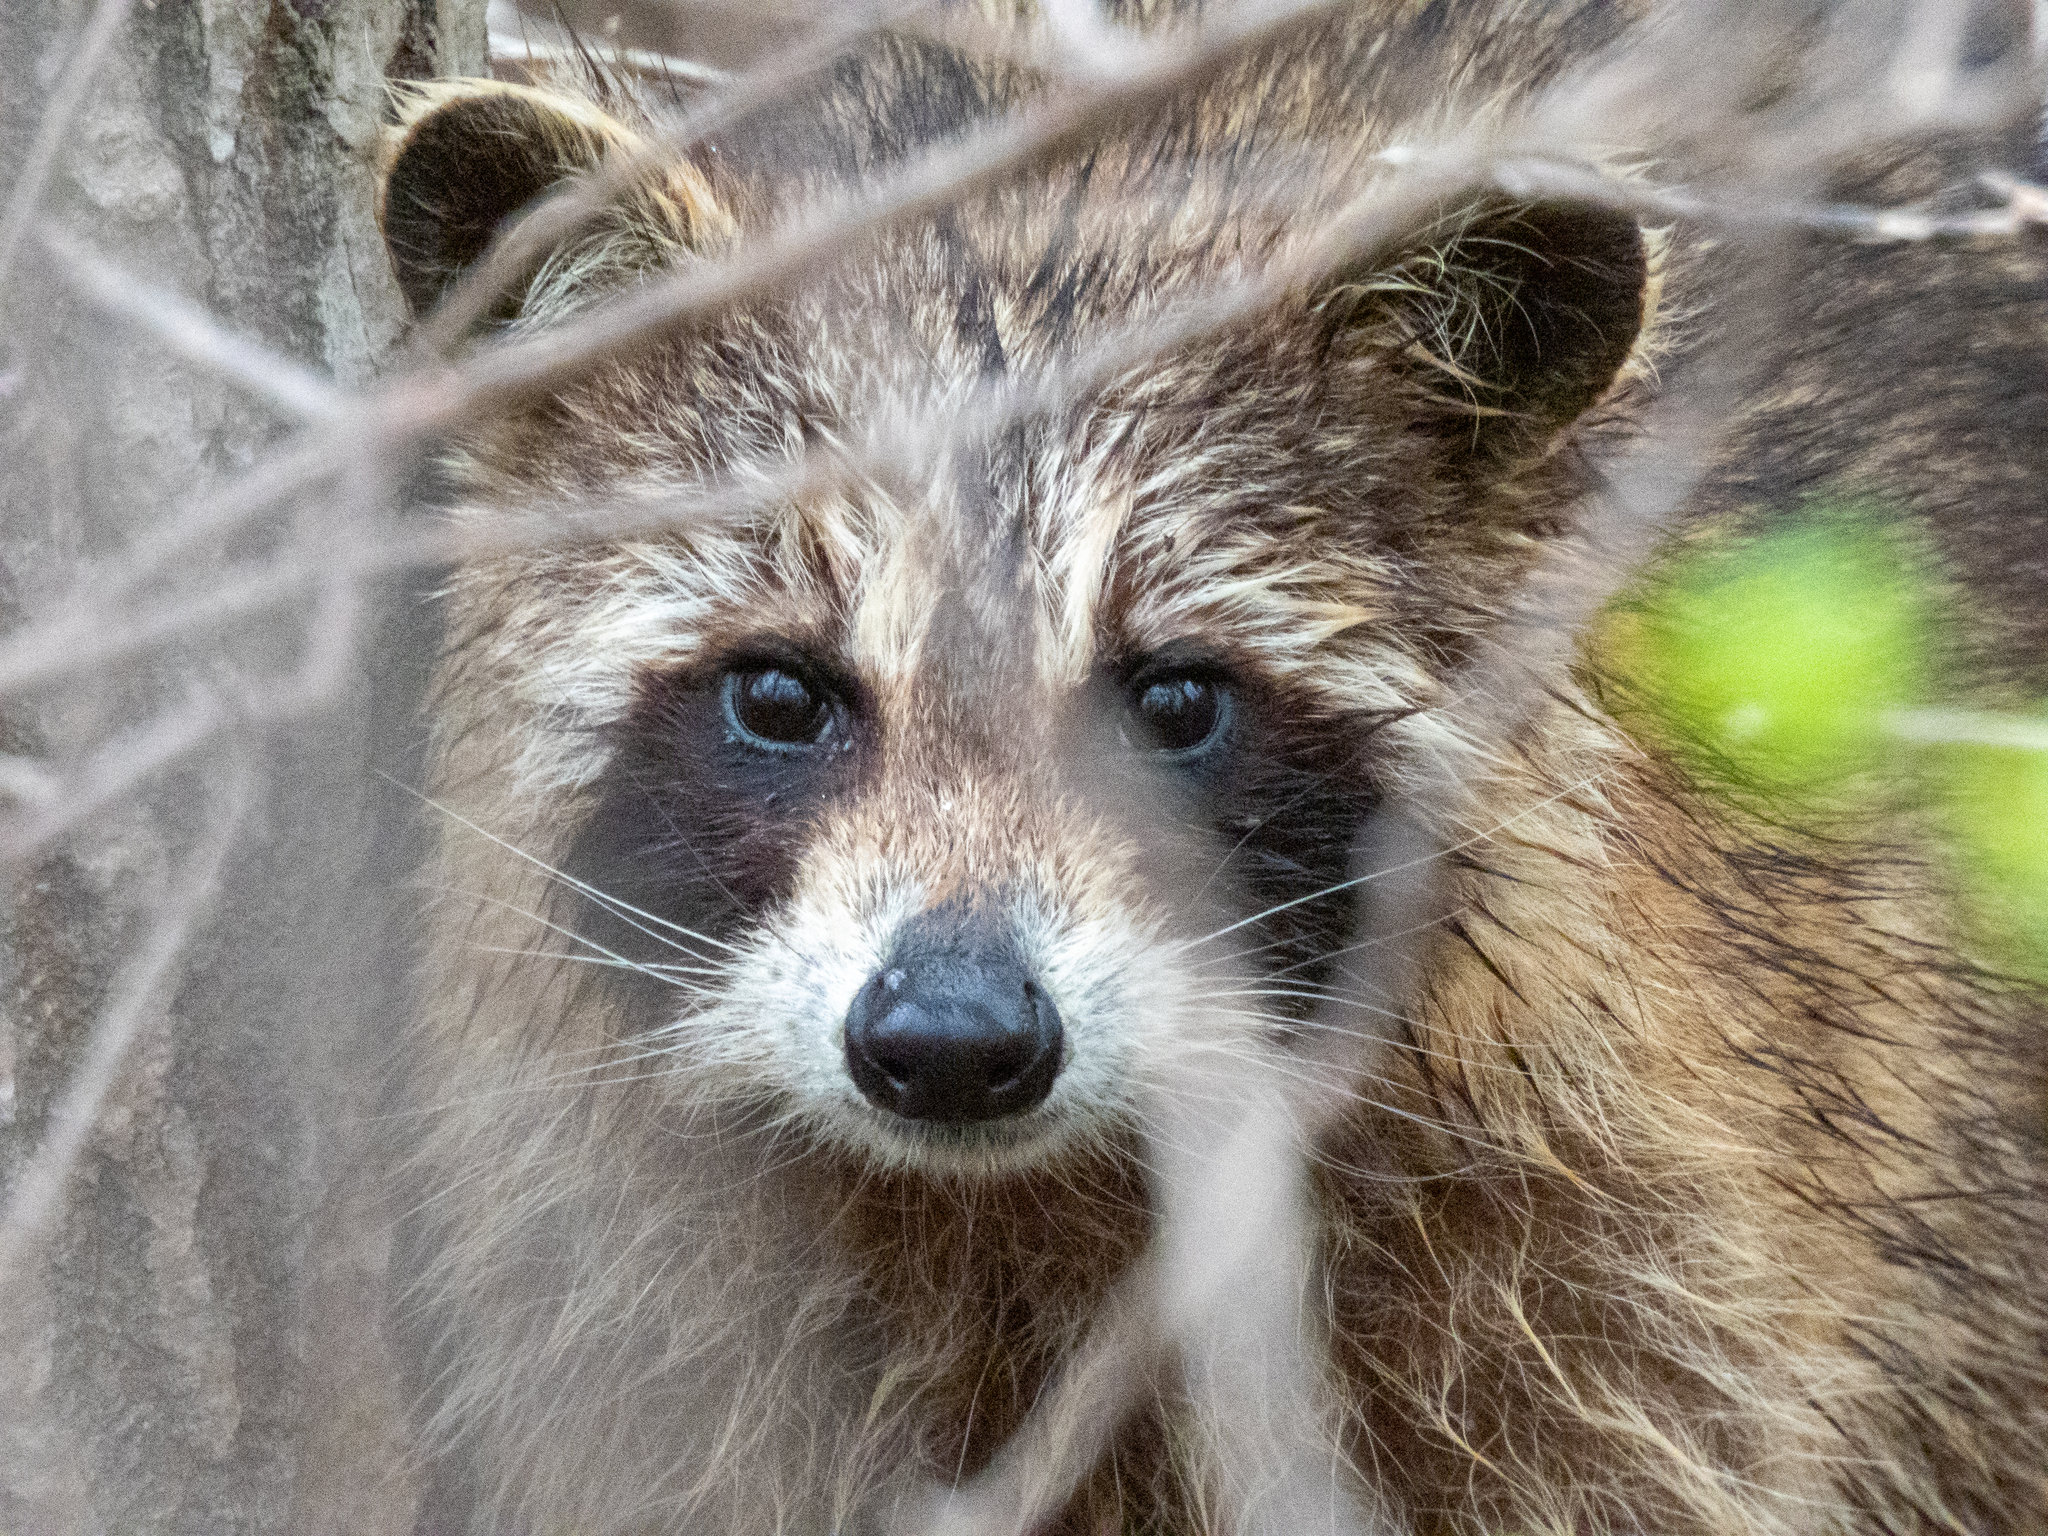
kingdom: Animalia
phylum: Chordata
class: Mammalia
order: Carnivora
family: Procyonidae
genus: Procyon
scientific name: Procyon lotor
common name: Raccoon
